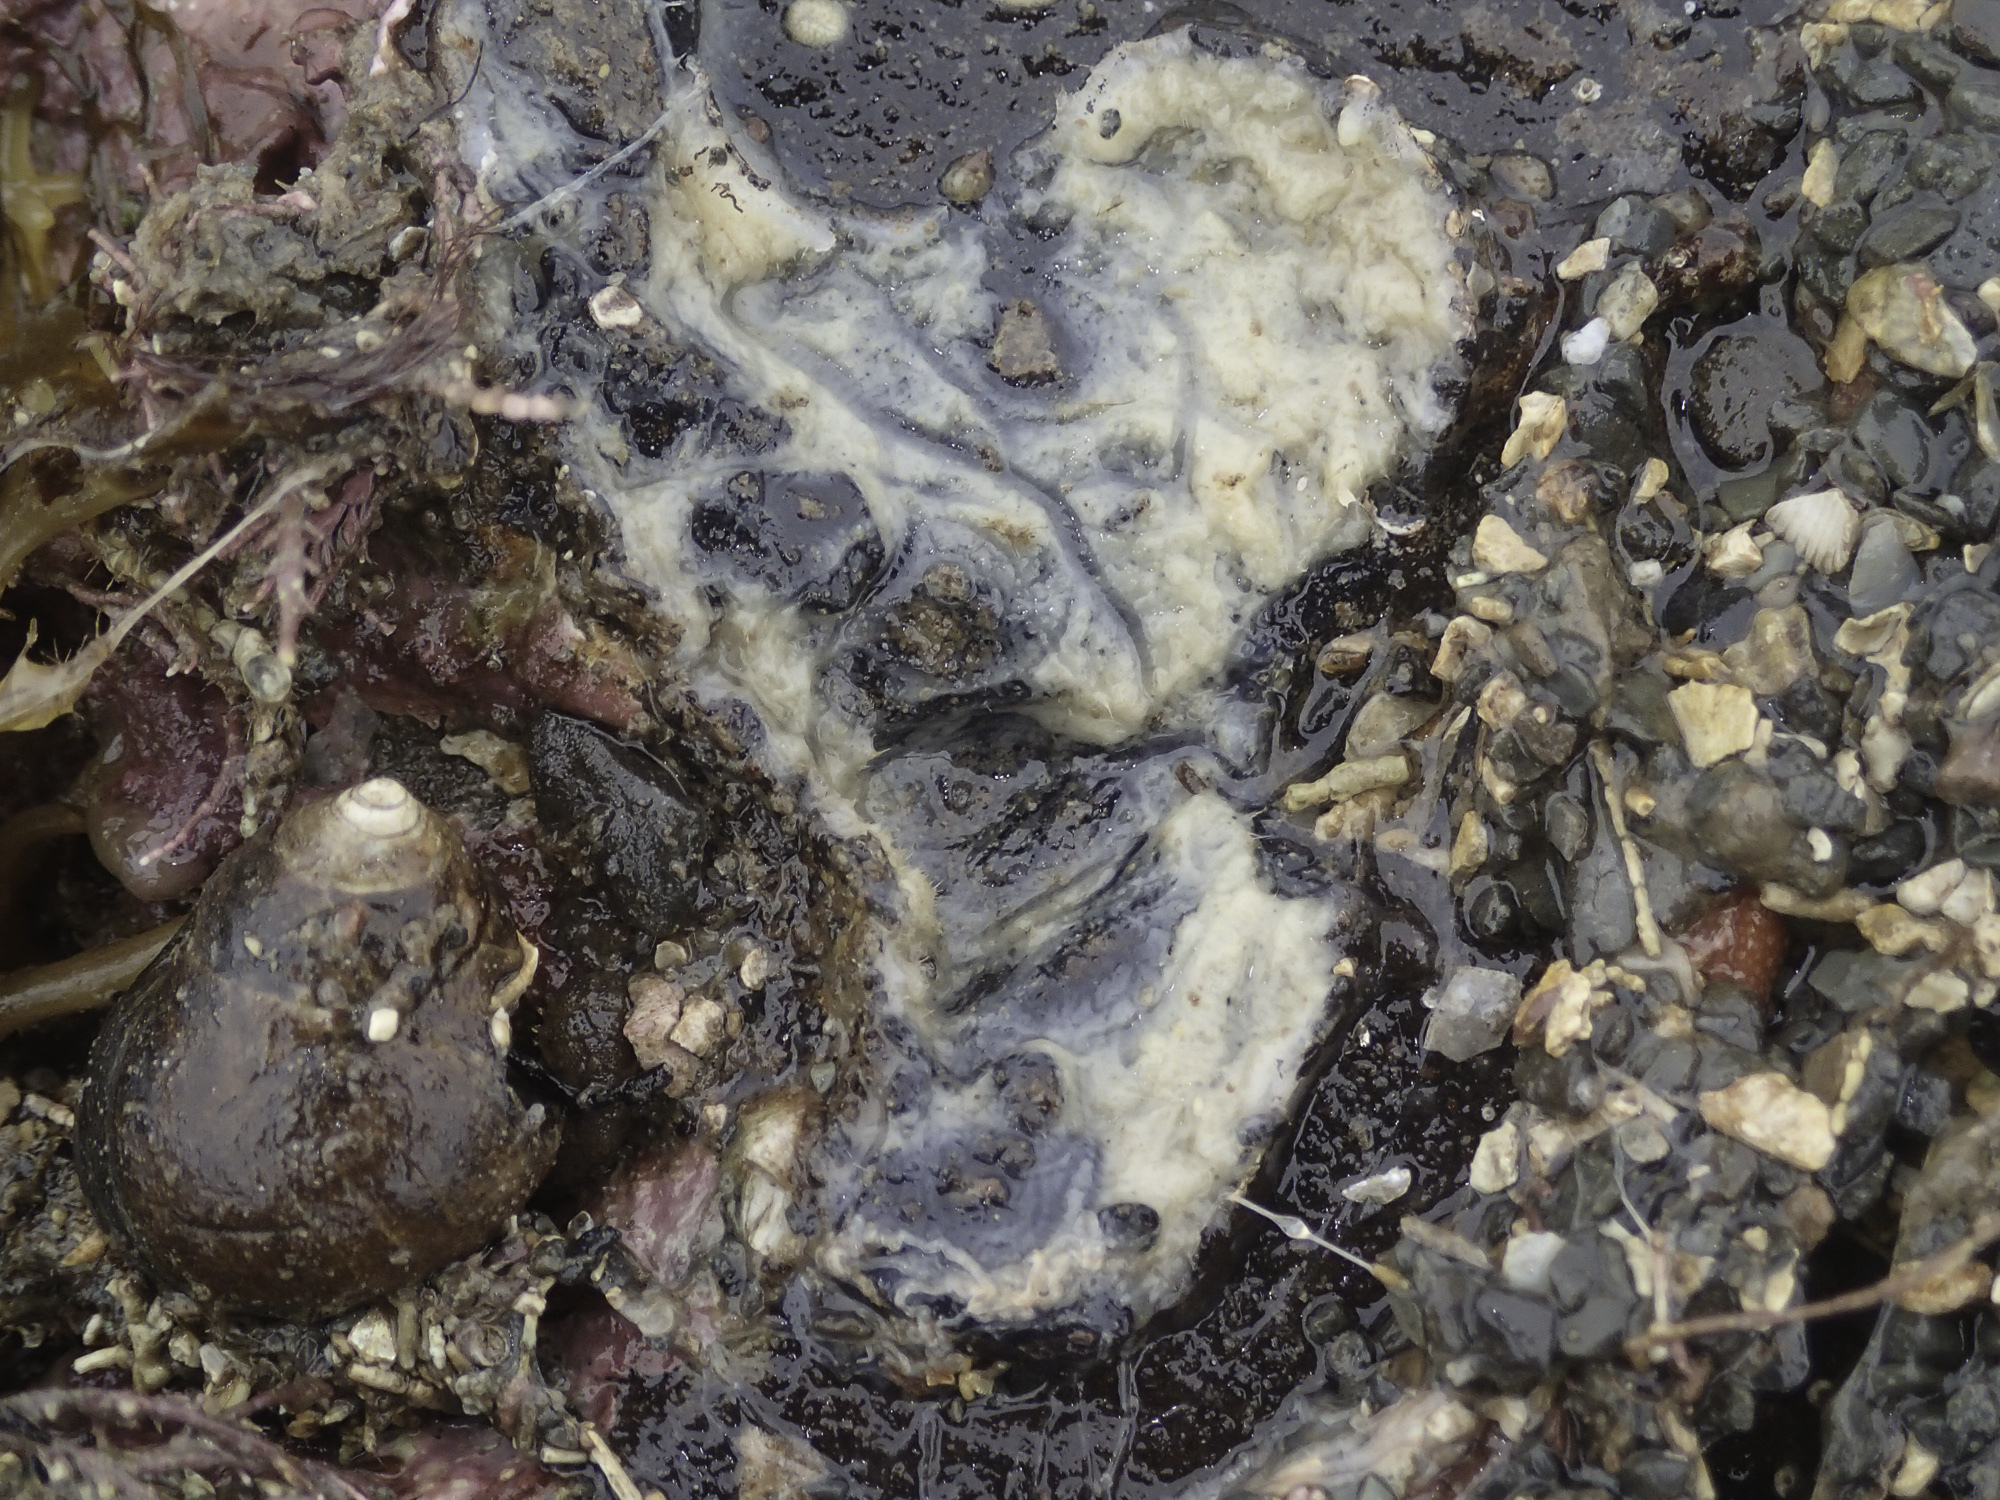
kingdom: Animalia
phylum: Porifera
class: Demospongiae
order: Tetractinellida
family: Ancorinidae
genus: Stelletta
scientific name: Stelletta lactea
